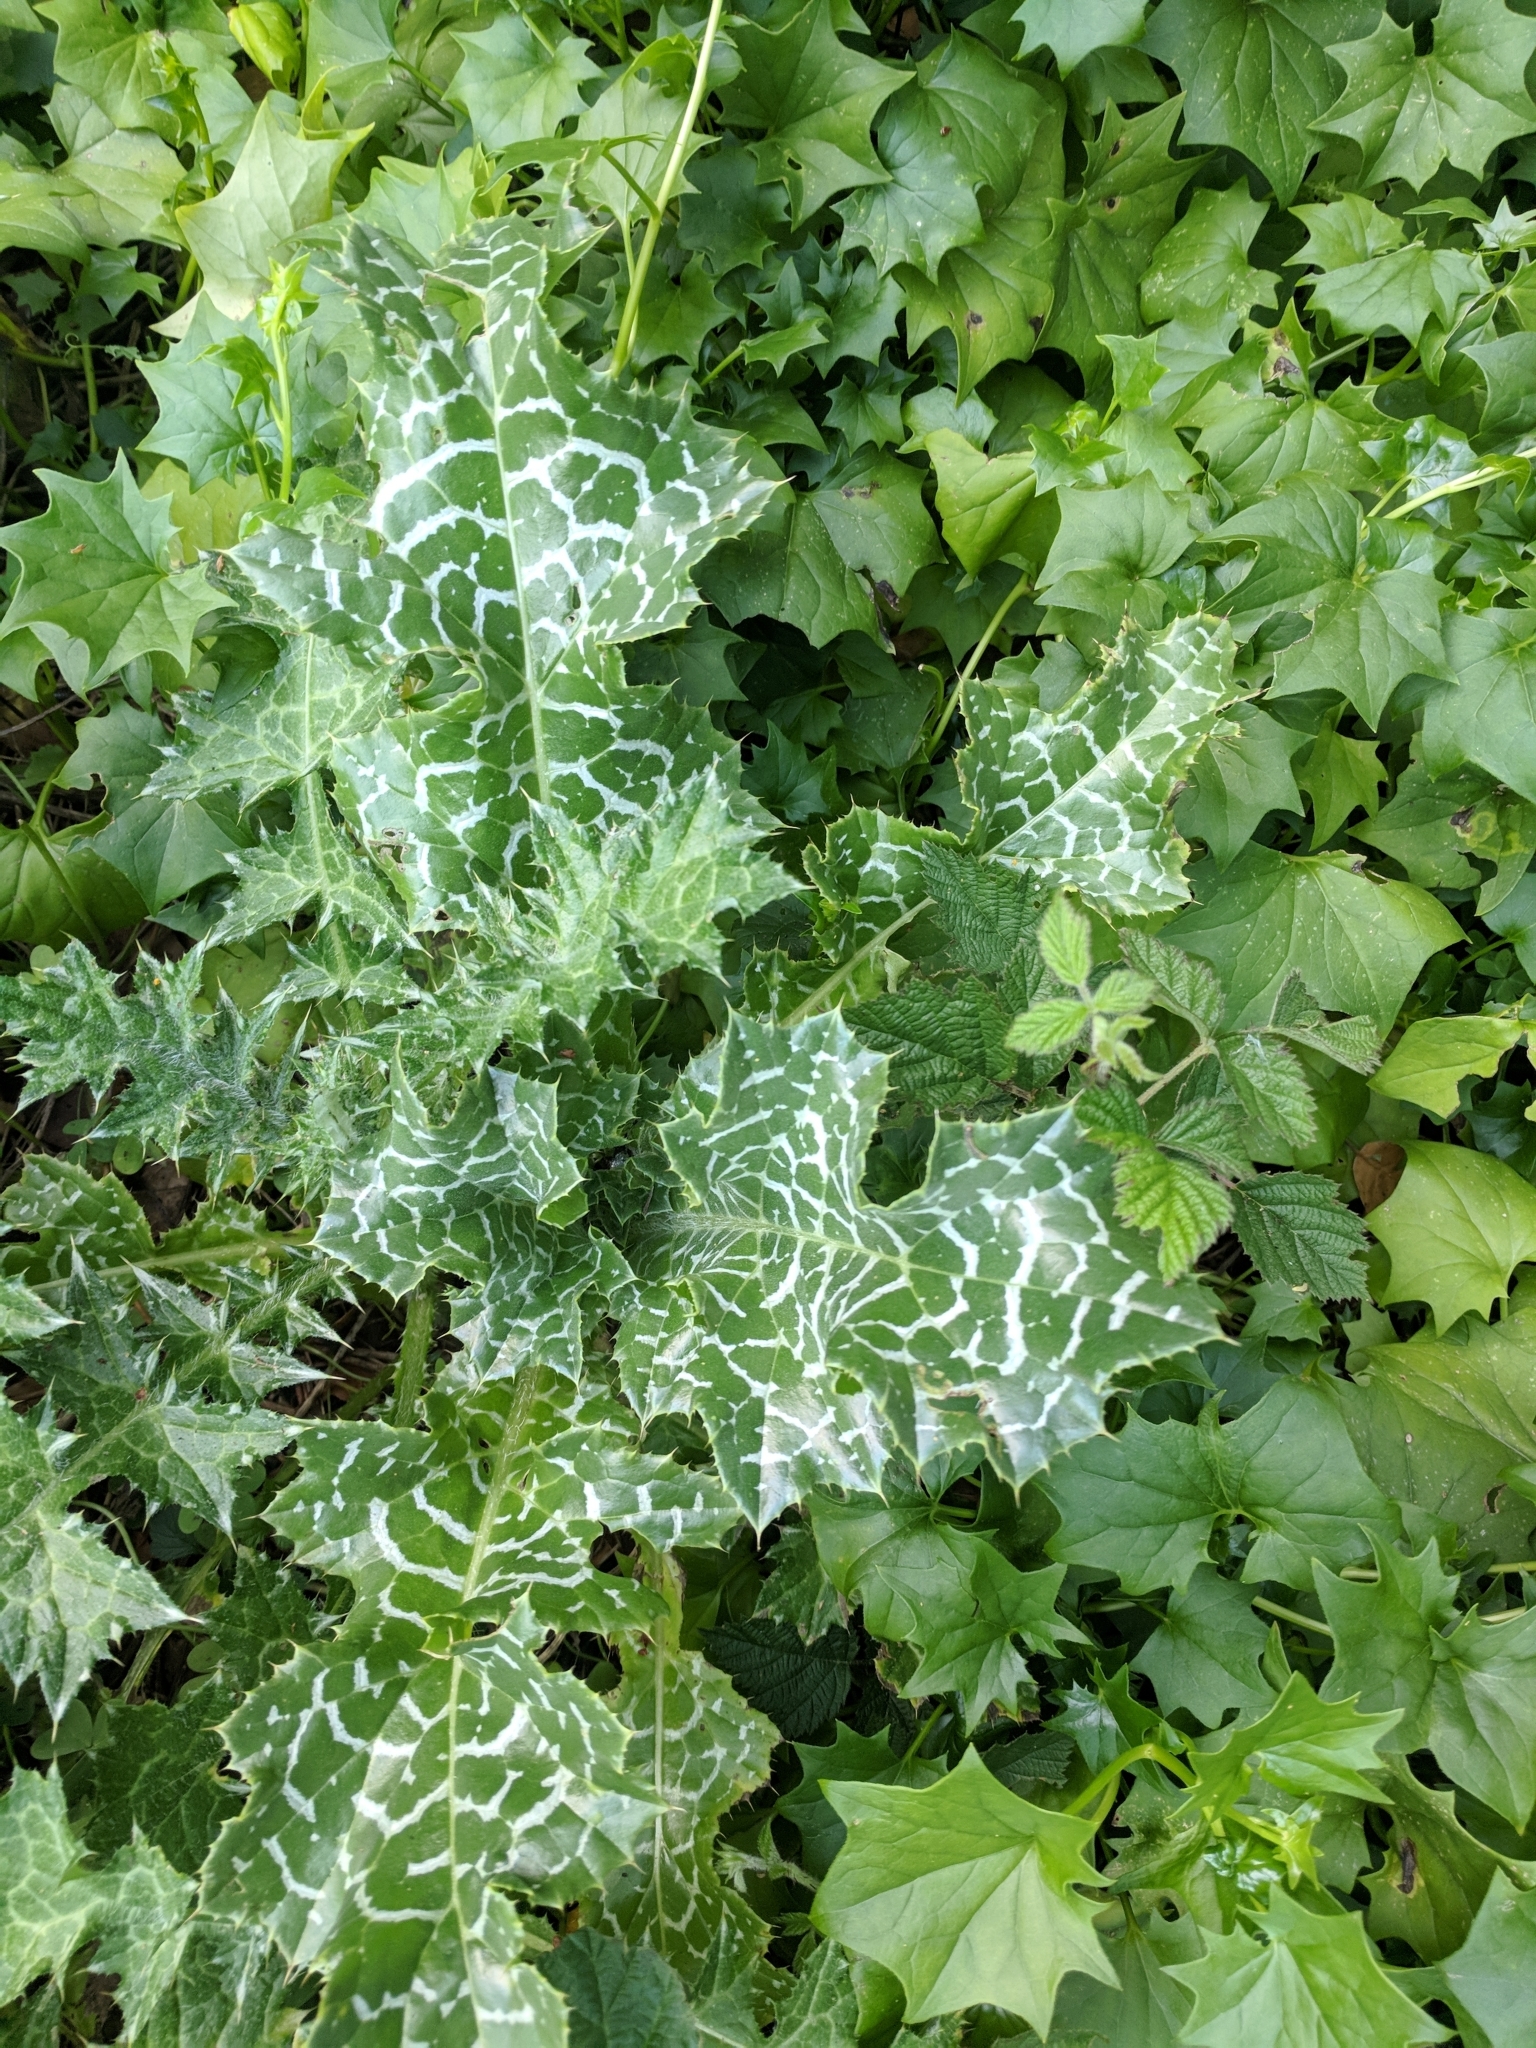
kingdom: Plantae
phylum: Tracheophyta
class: Magnoliopsida
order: Asterales
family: Asteraceae
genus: Silybum
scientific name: Silybum marianum
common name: Milk thistle
